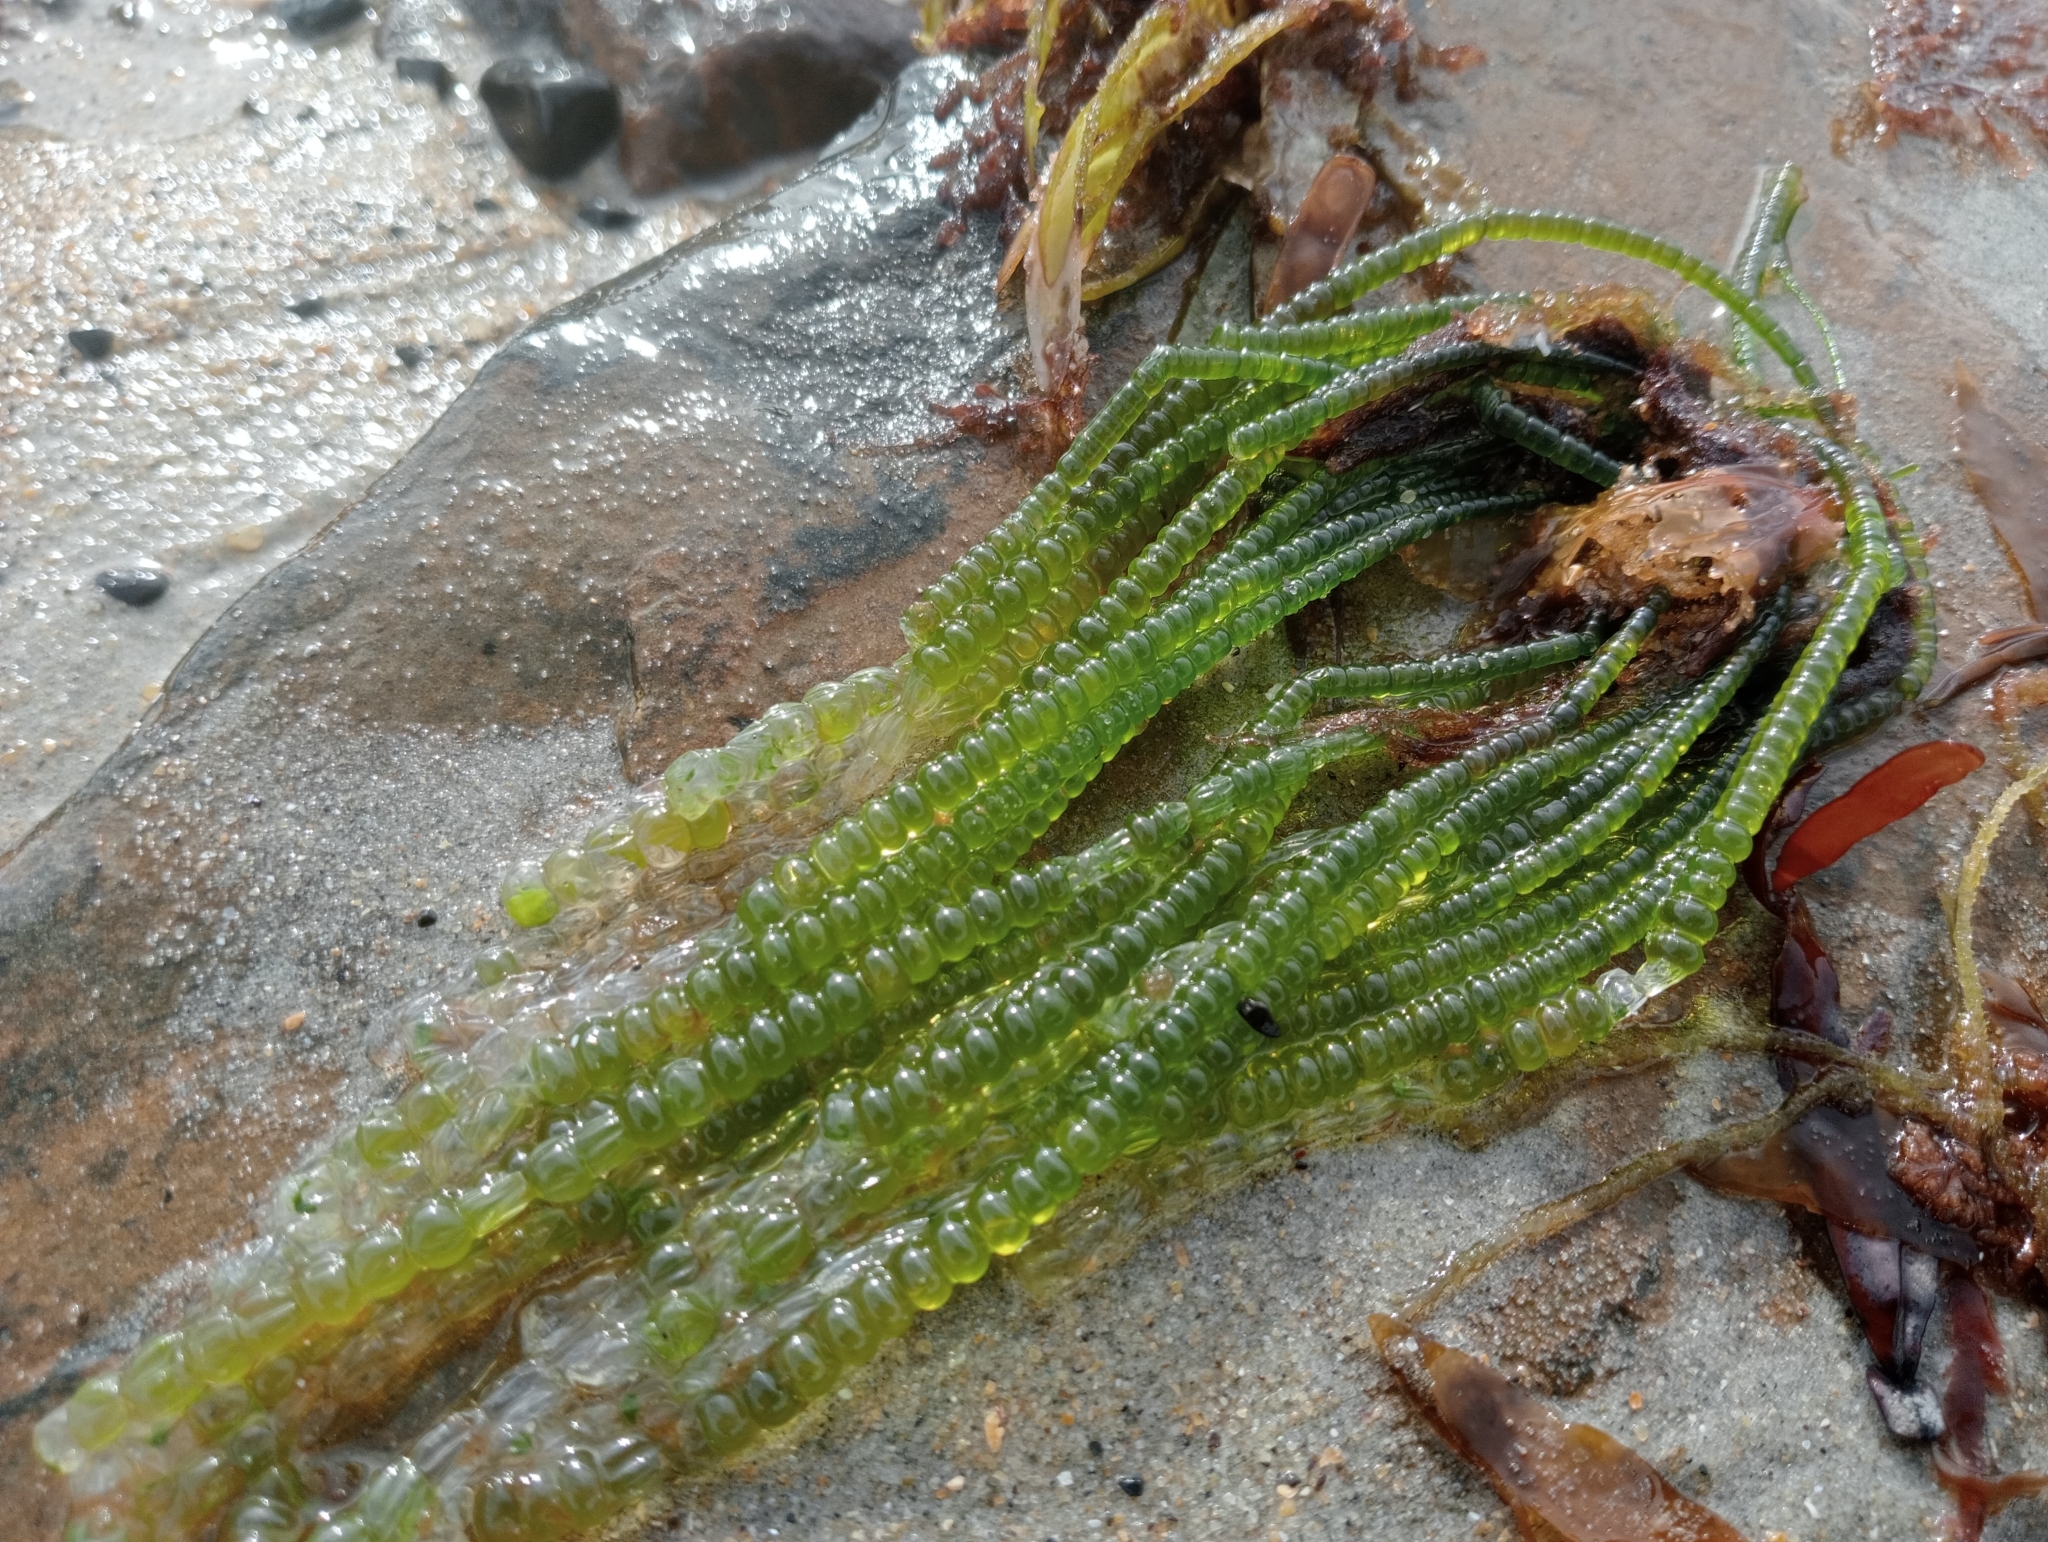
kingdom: Plantae
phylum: Chlorophyta
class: Ulvophyceae
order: Cladophorales
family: Cladophoraceae
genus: Chaetomorpha
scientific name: Chaetomorpha coliformis
